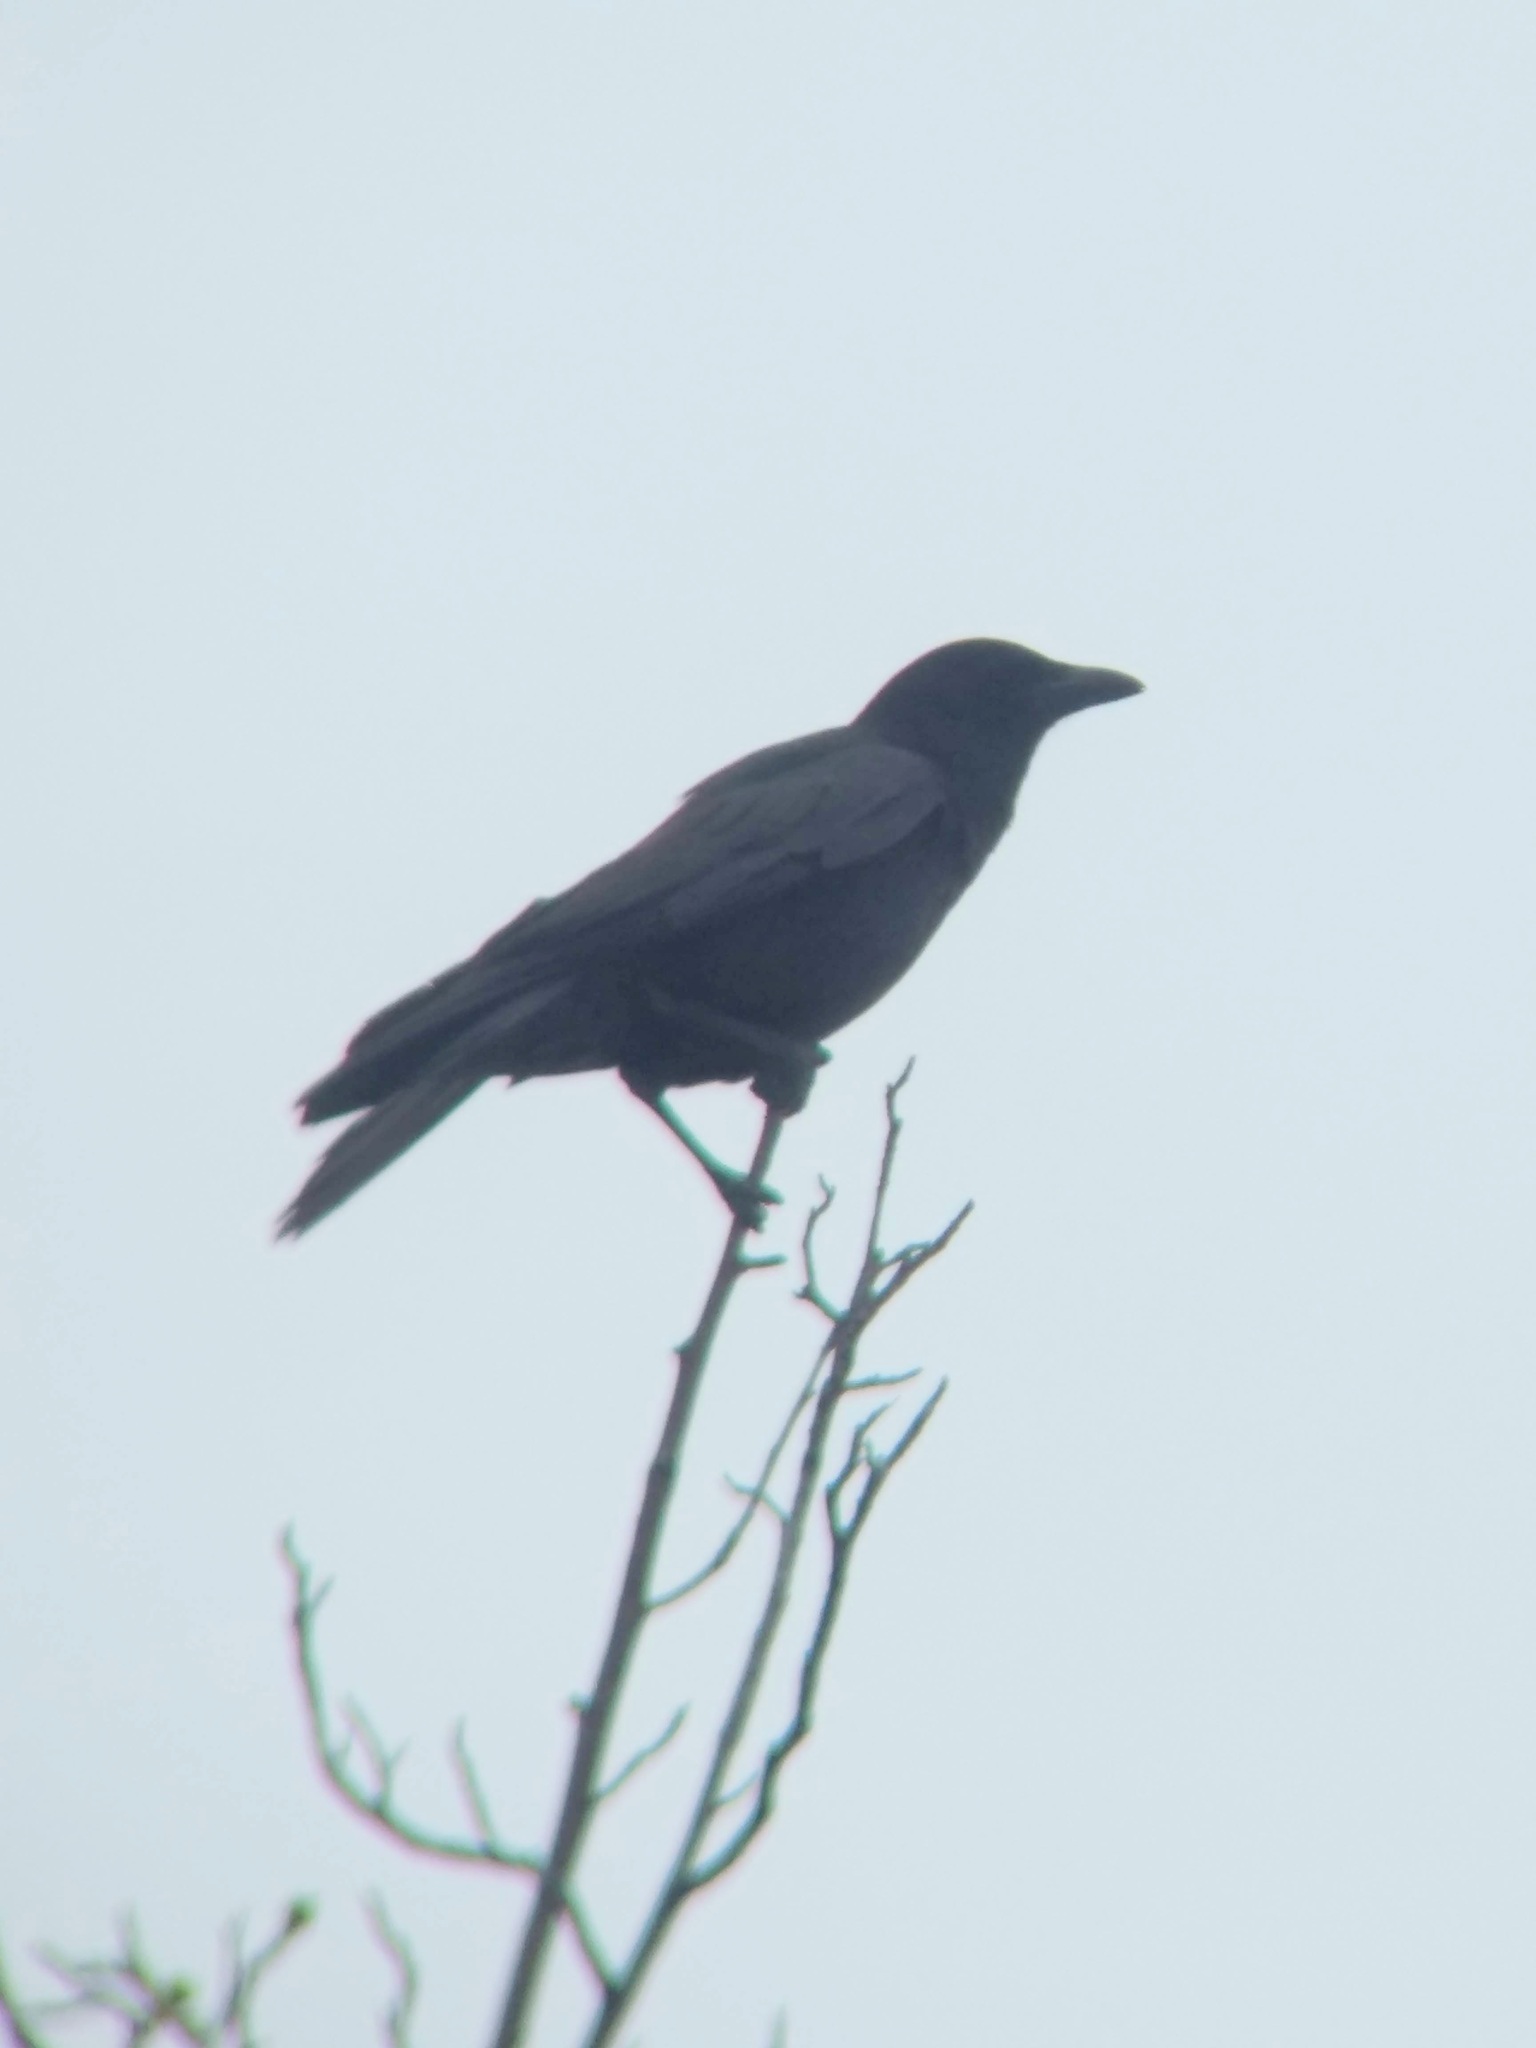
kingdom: Animalia
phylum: Chordata
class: Aves
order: Passeriformes
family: Corvidae
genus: Corvus
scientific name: Corvus brachyrhynchos
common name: American crow
